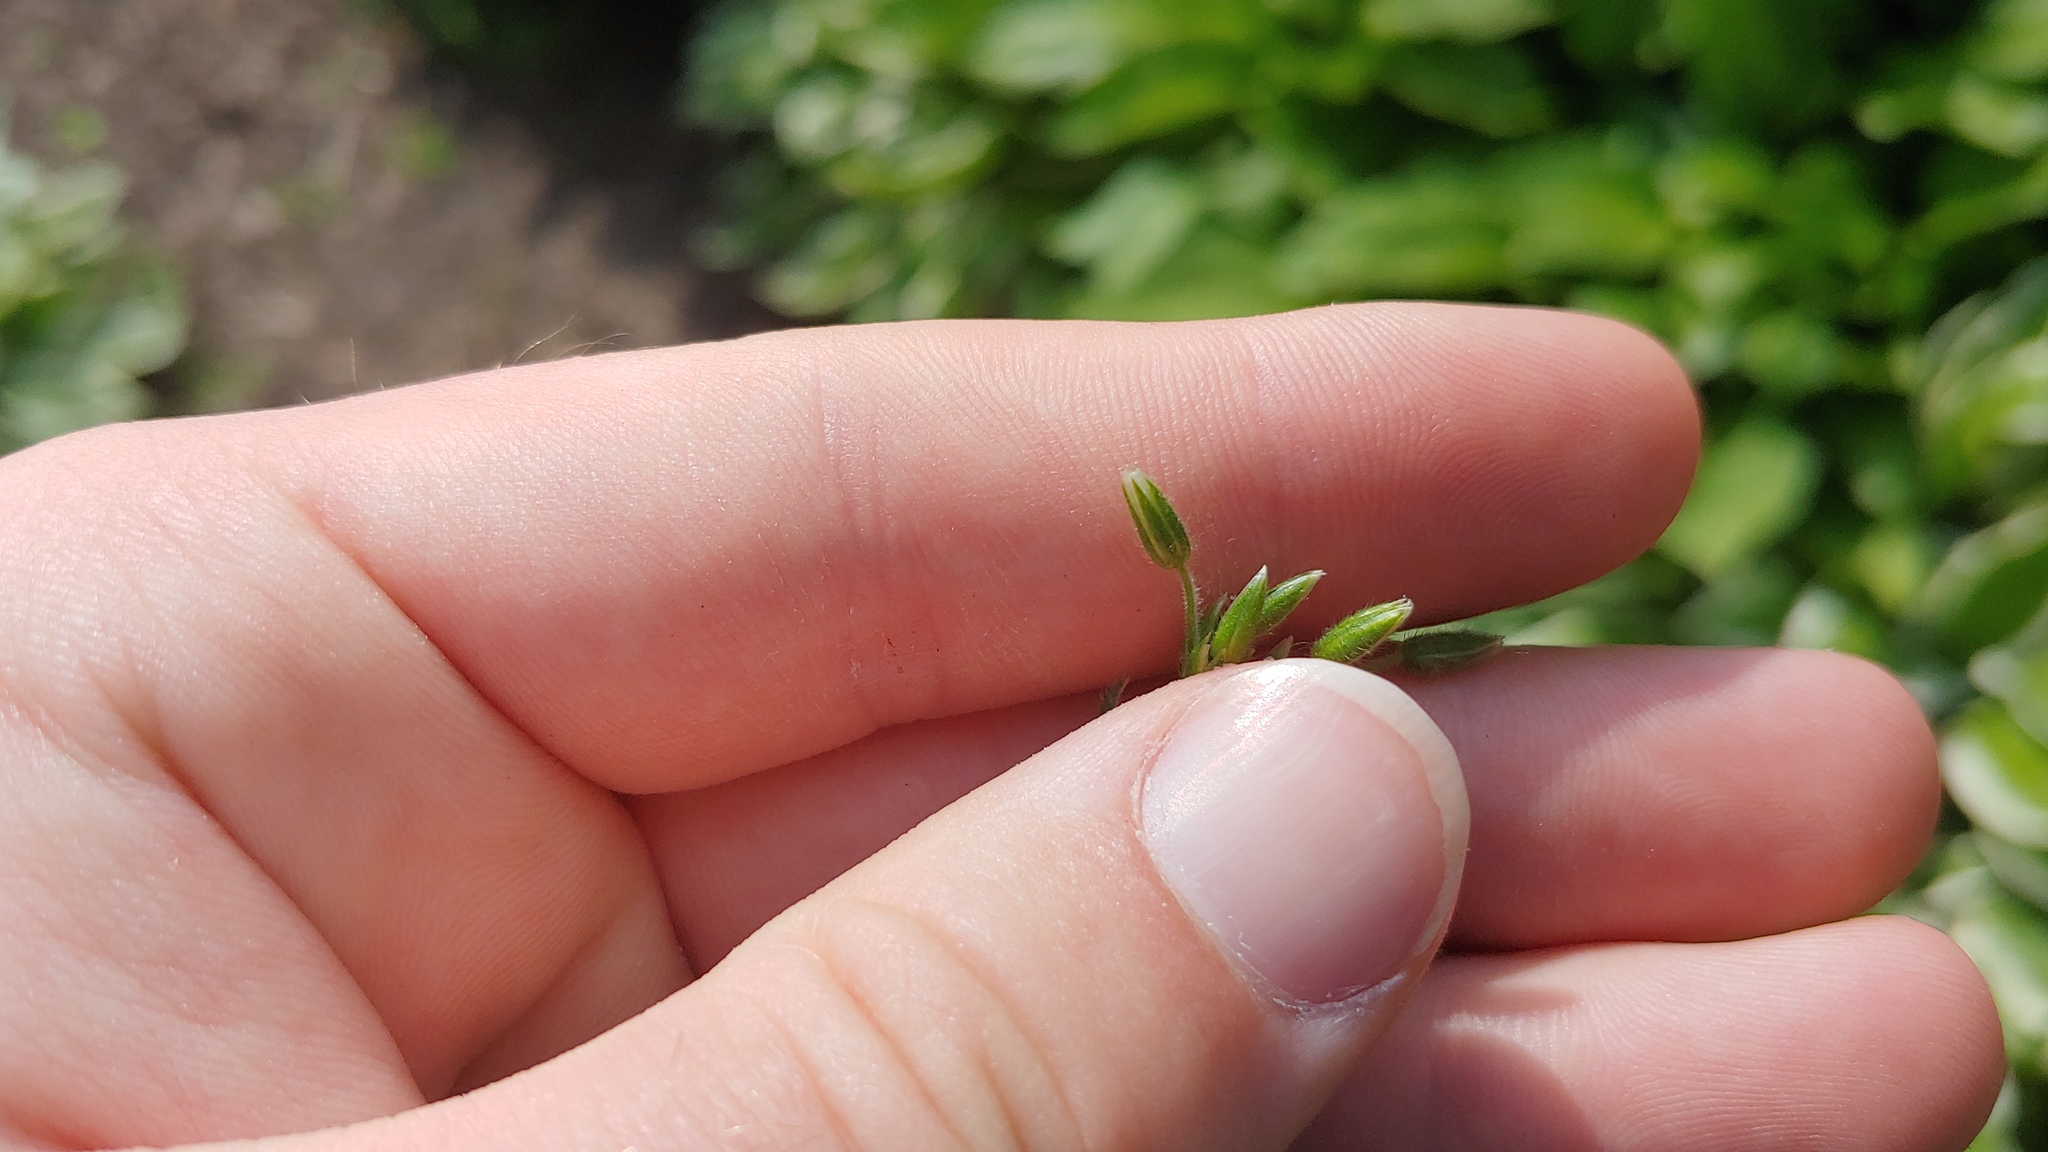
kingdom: Plantae
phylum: Tracheophyta
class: Magnoliopsida
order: Caryophyllales
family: Caryophyllaceae
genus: Cerastium
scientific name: Cerastium fontanum
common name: Common mouse-ear
